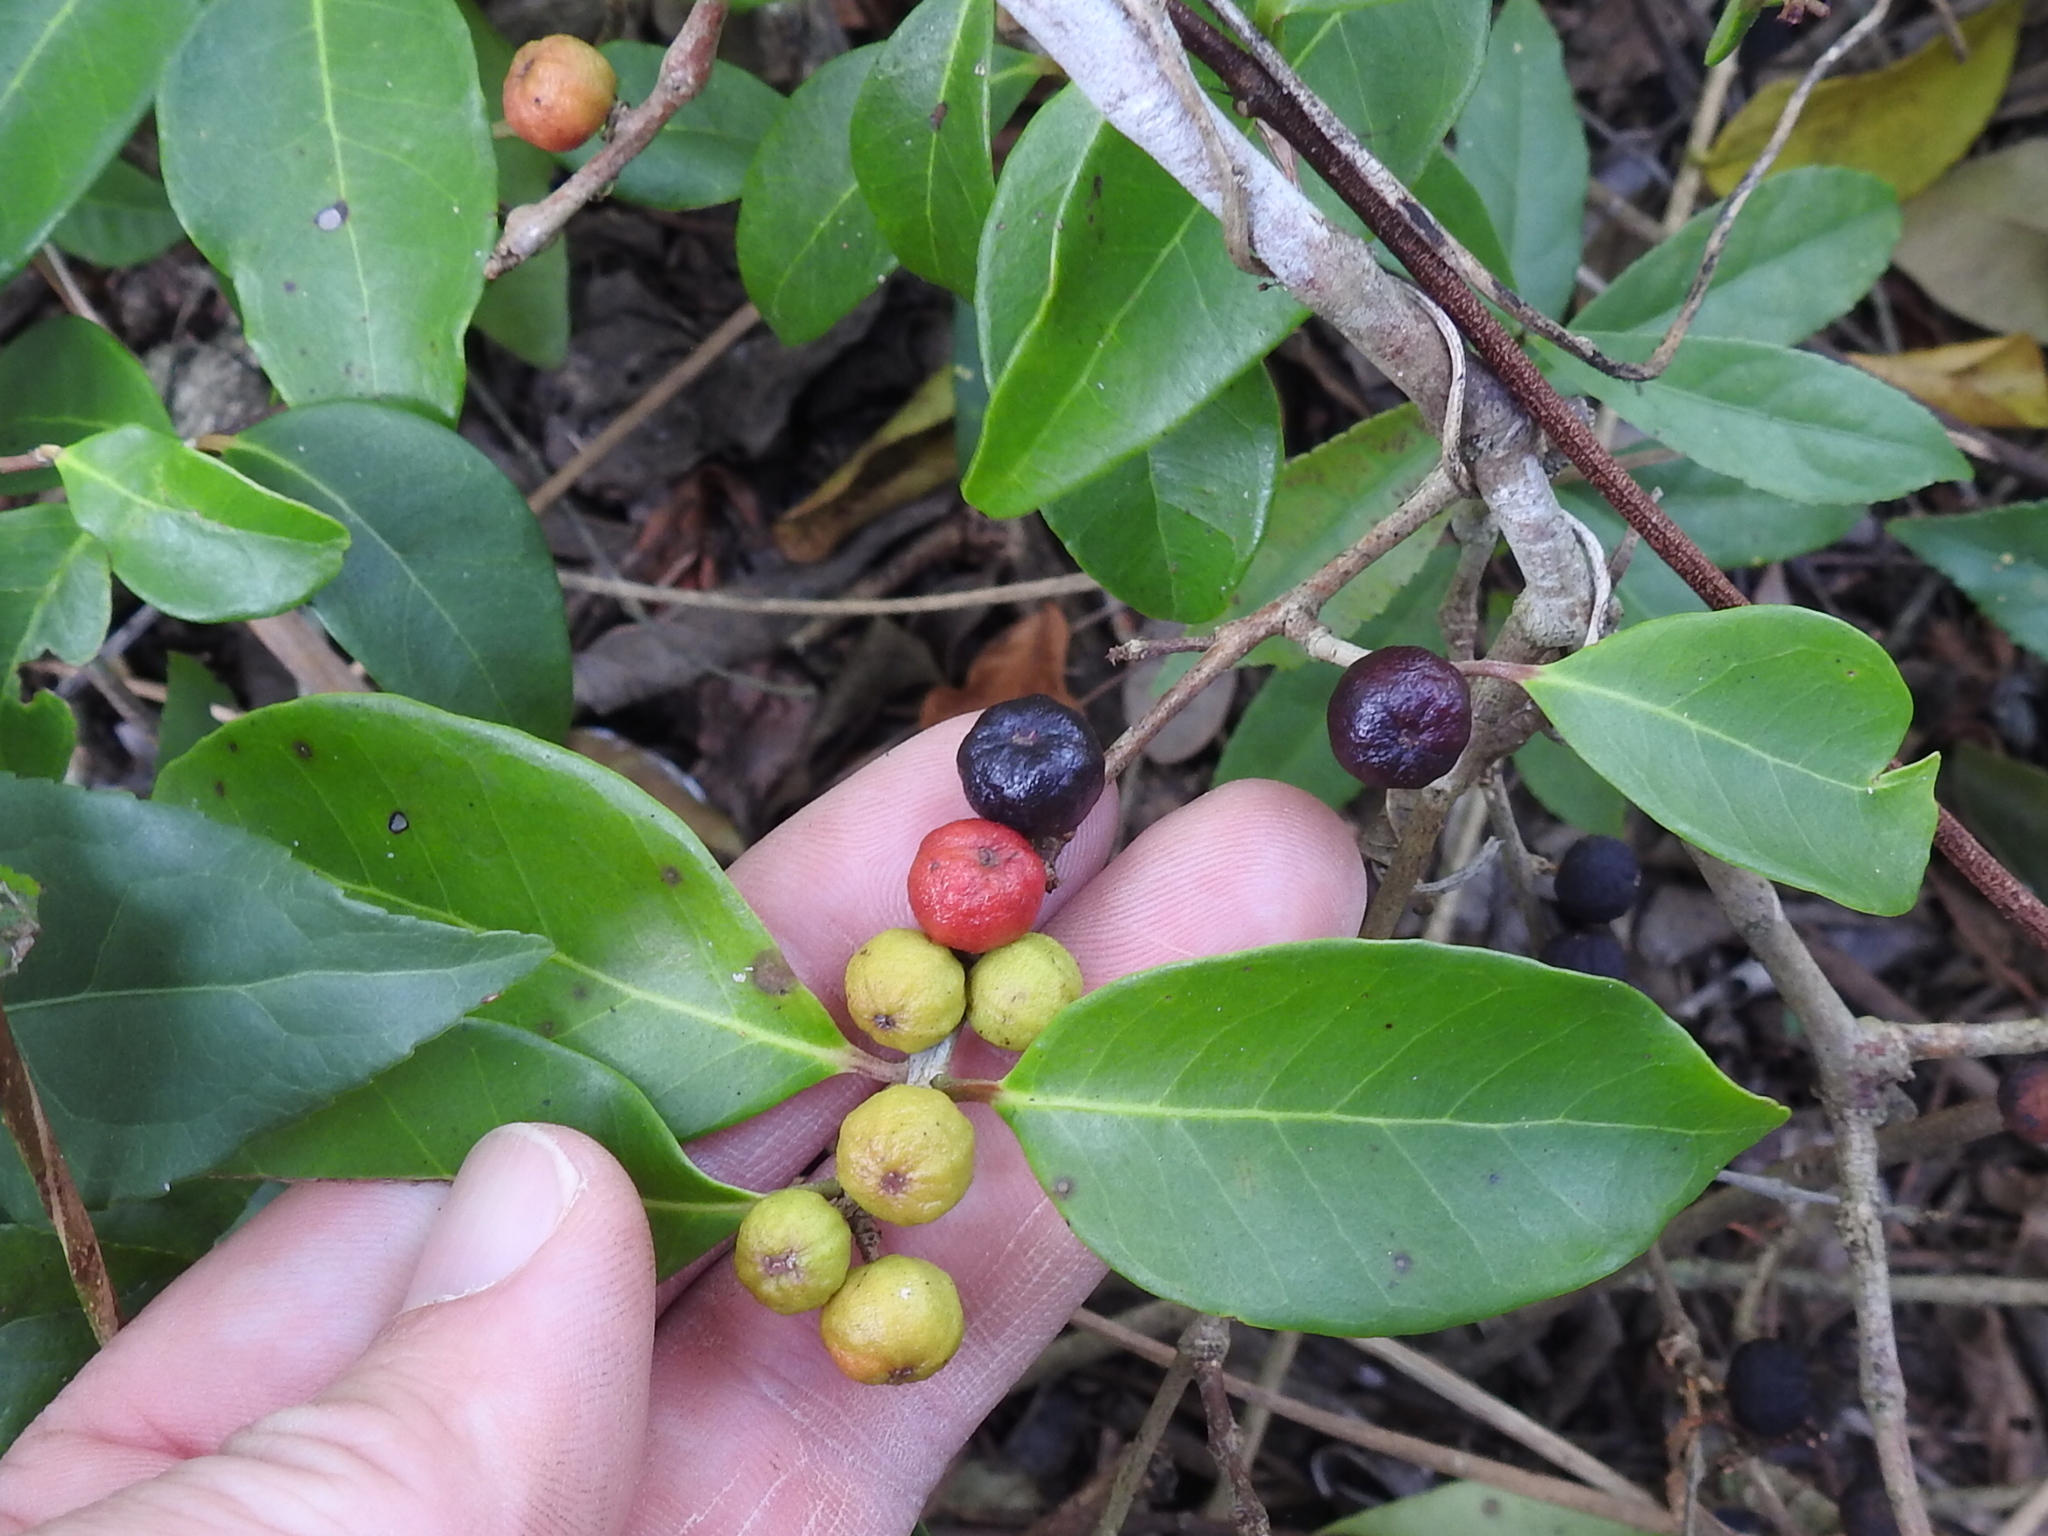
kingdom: Plantae
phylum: Tracheophyta
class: Magnoliopsida
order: Myrtales
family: Myrtaceae
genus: Eugenia
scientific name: Eugenia axillaris
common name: Choaky berry
